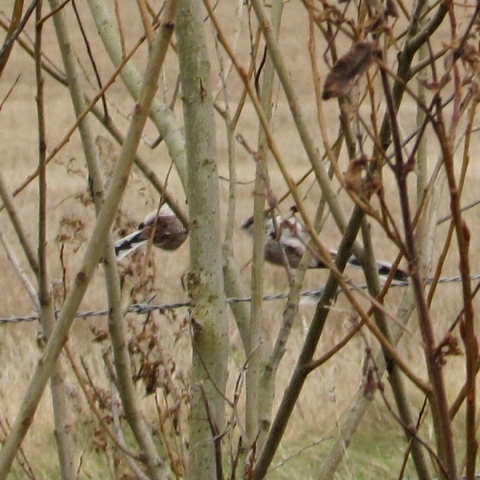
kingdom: Animalia
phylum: Chordata
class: Aves
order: Passeriformes
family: Aegithalidae
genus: Aegithalos
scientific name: Aegithalos caudatus
